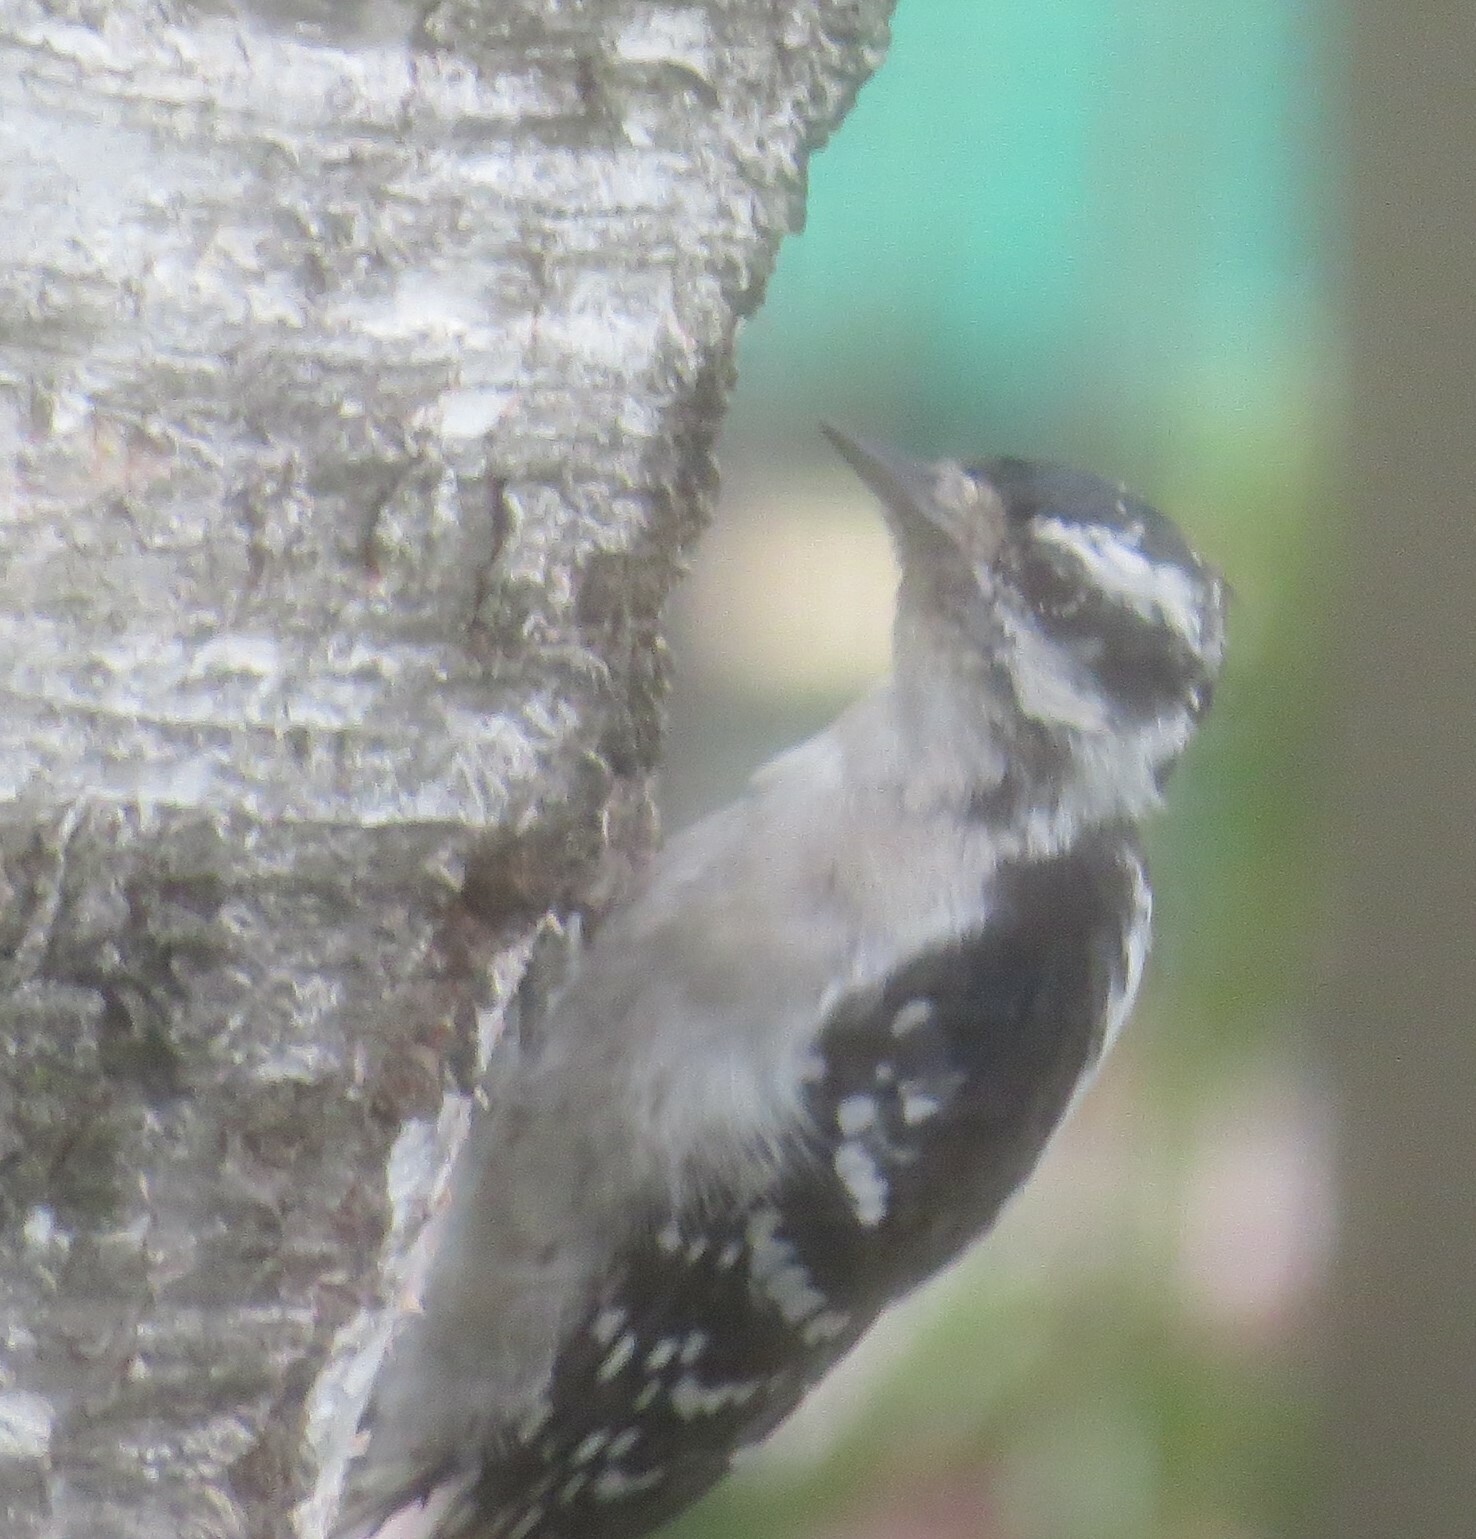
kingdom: Animalia
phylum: Chordata
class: Aves
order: Piciformes
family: Picidae
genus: Dryobates
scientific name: Dryobates pubescens
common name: Downy woodpecker
